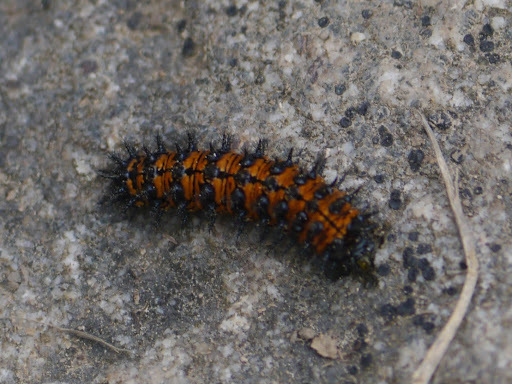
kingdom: Animalia
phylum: Arthropoda
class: Insecta
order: Lepidoptera
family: Nymphalidae
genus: Chlosyne
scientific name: Chlosyne harrisii
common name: Harris's checkerspot
